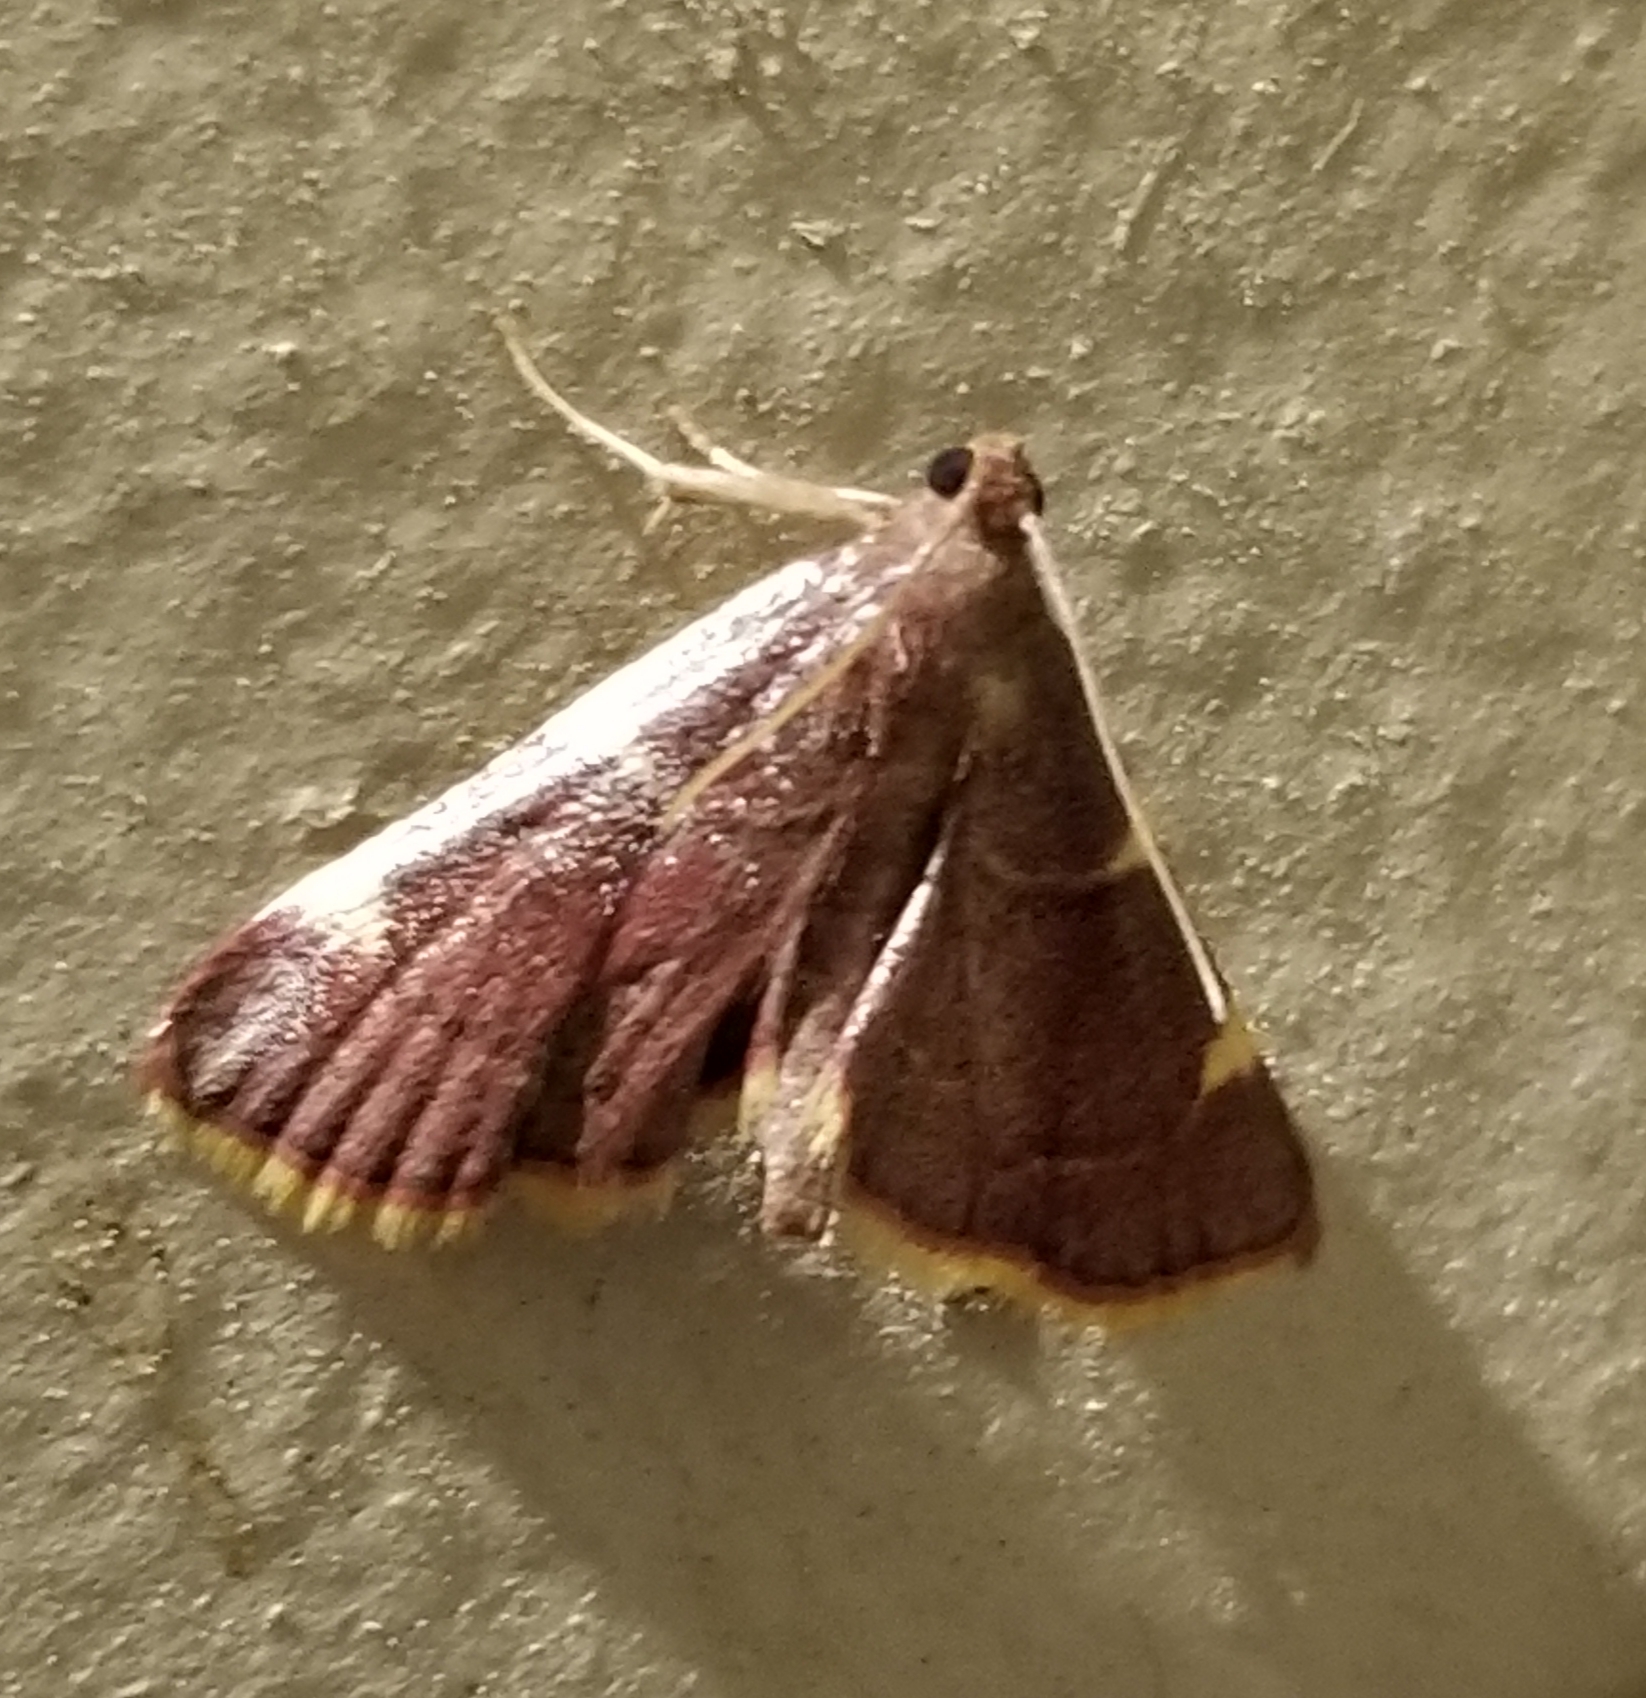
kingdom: Animalia
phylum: Arthropoda
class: Insecta
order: Lepidoptera
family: Pyralidae
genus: Hypsopygia
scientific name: Hypsopygia olinalis
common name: Yellow-fringed dolichomia moth
